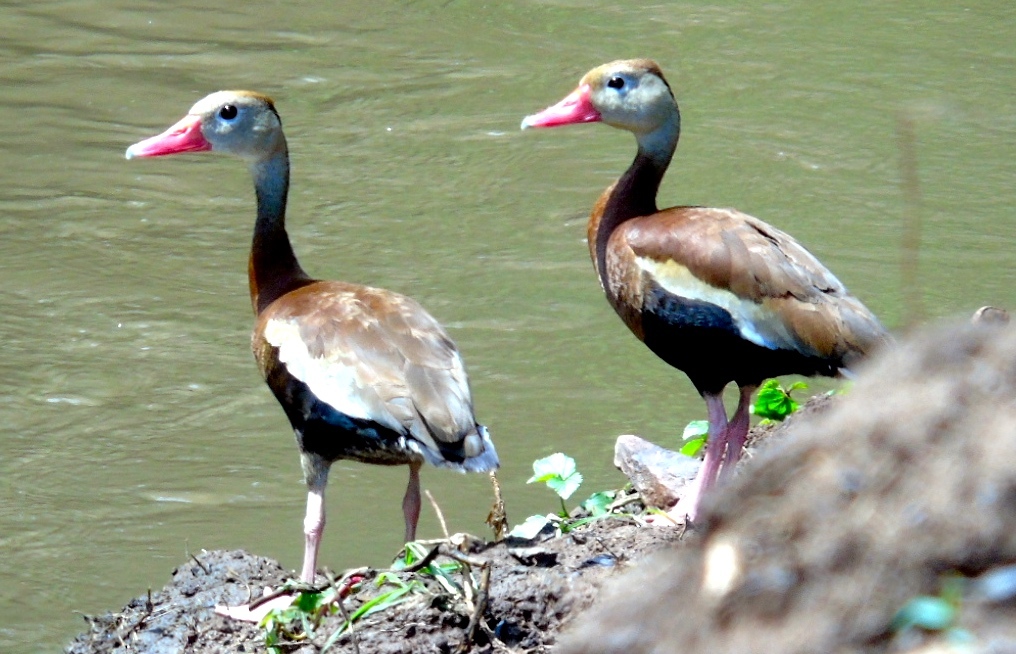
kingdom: Animalia
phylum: Chordata
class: Aves
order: Anseriformes
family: Anatidae
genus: Dendrocygna
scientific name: Dendrocygna autumnalis
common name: Black-bellied whistling duck
